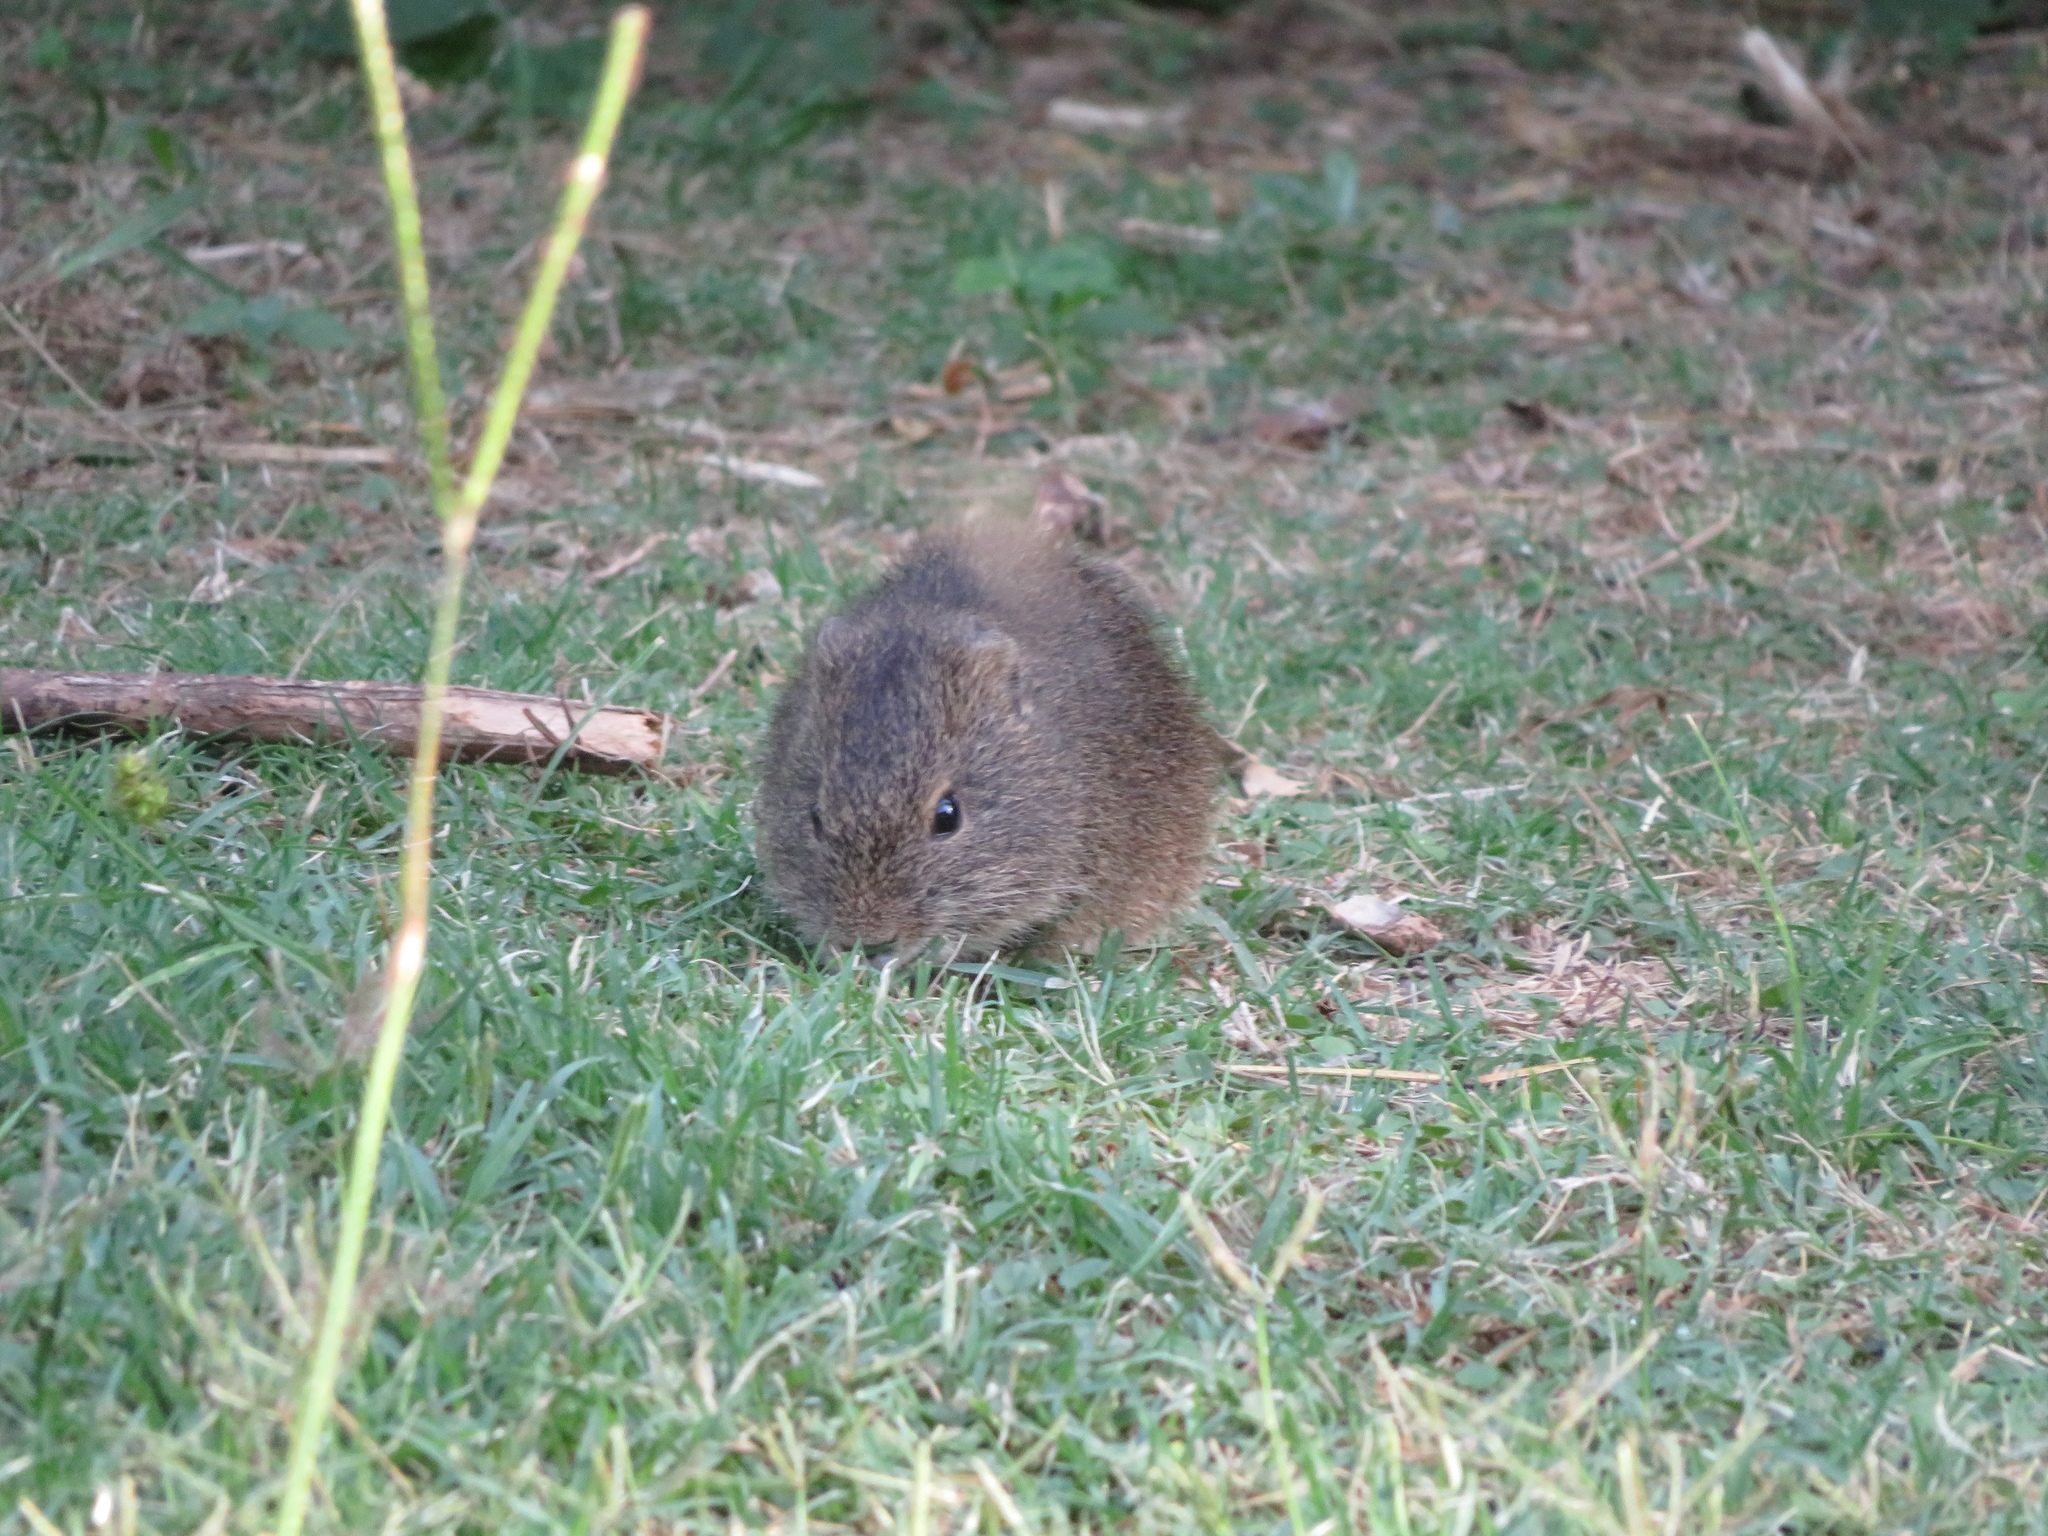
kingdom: Animalia
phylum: Chordata
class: Mammalia
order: Rodentia
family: Caviidae
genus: Cavia
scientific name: Cavia aperea
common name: Brazilian guinea pig
